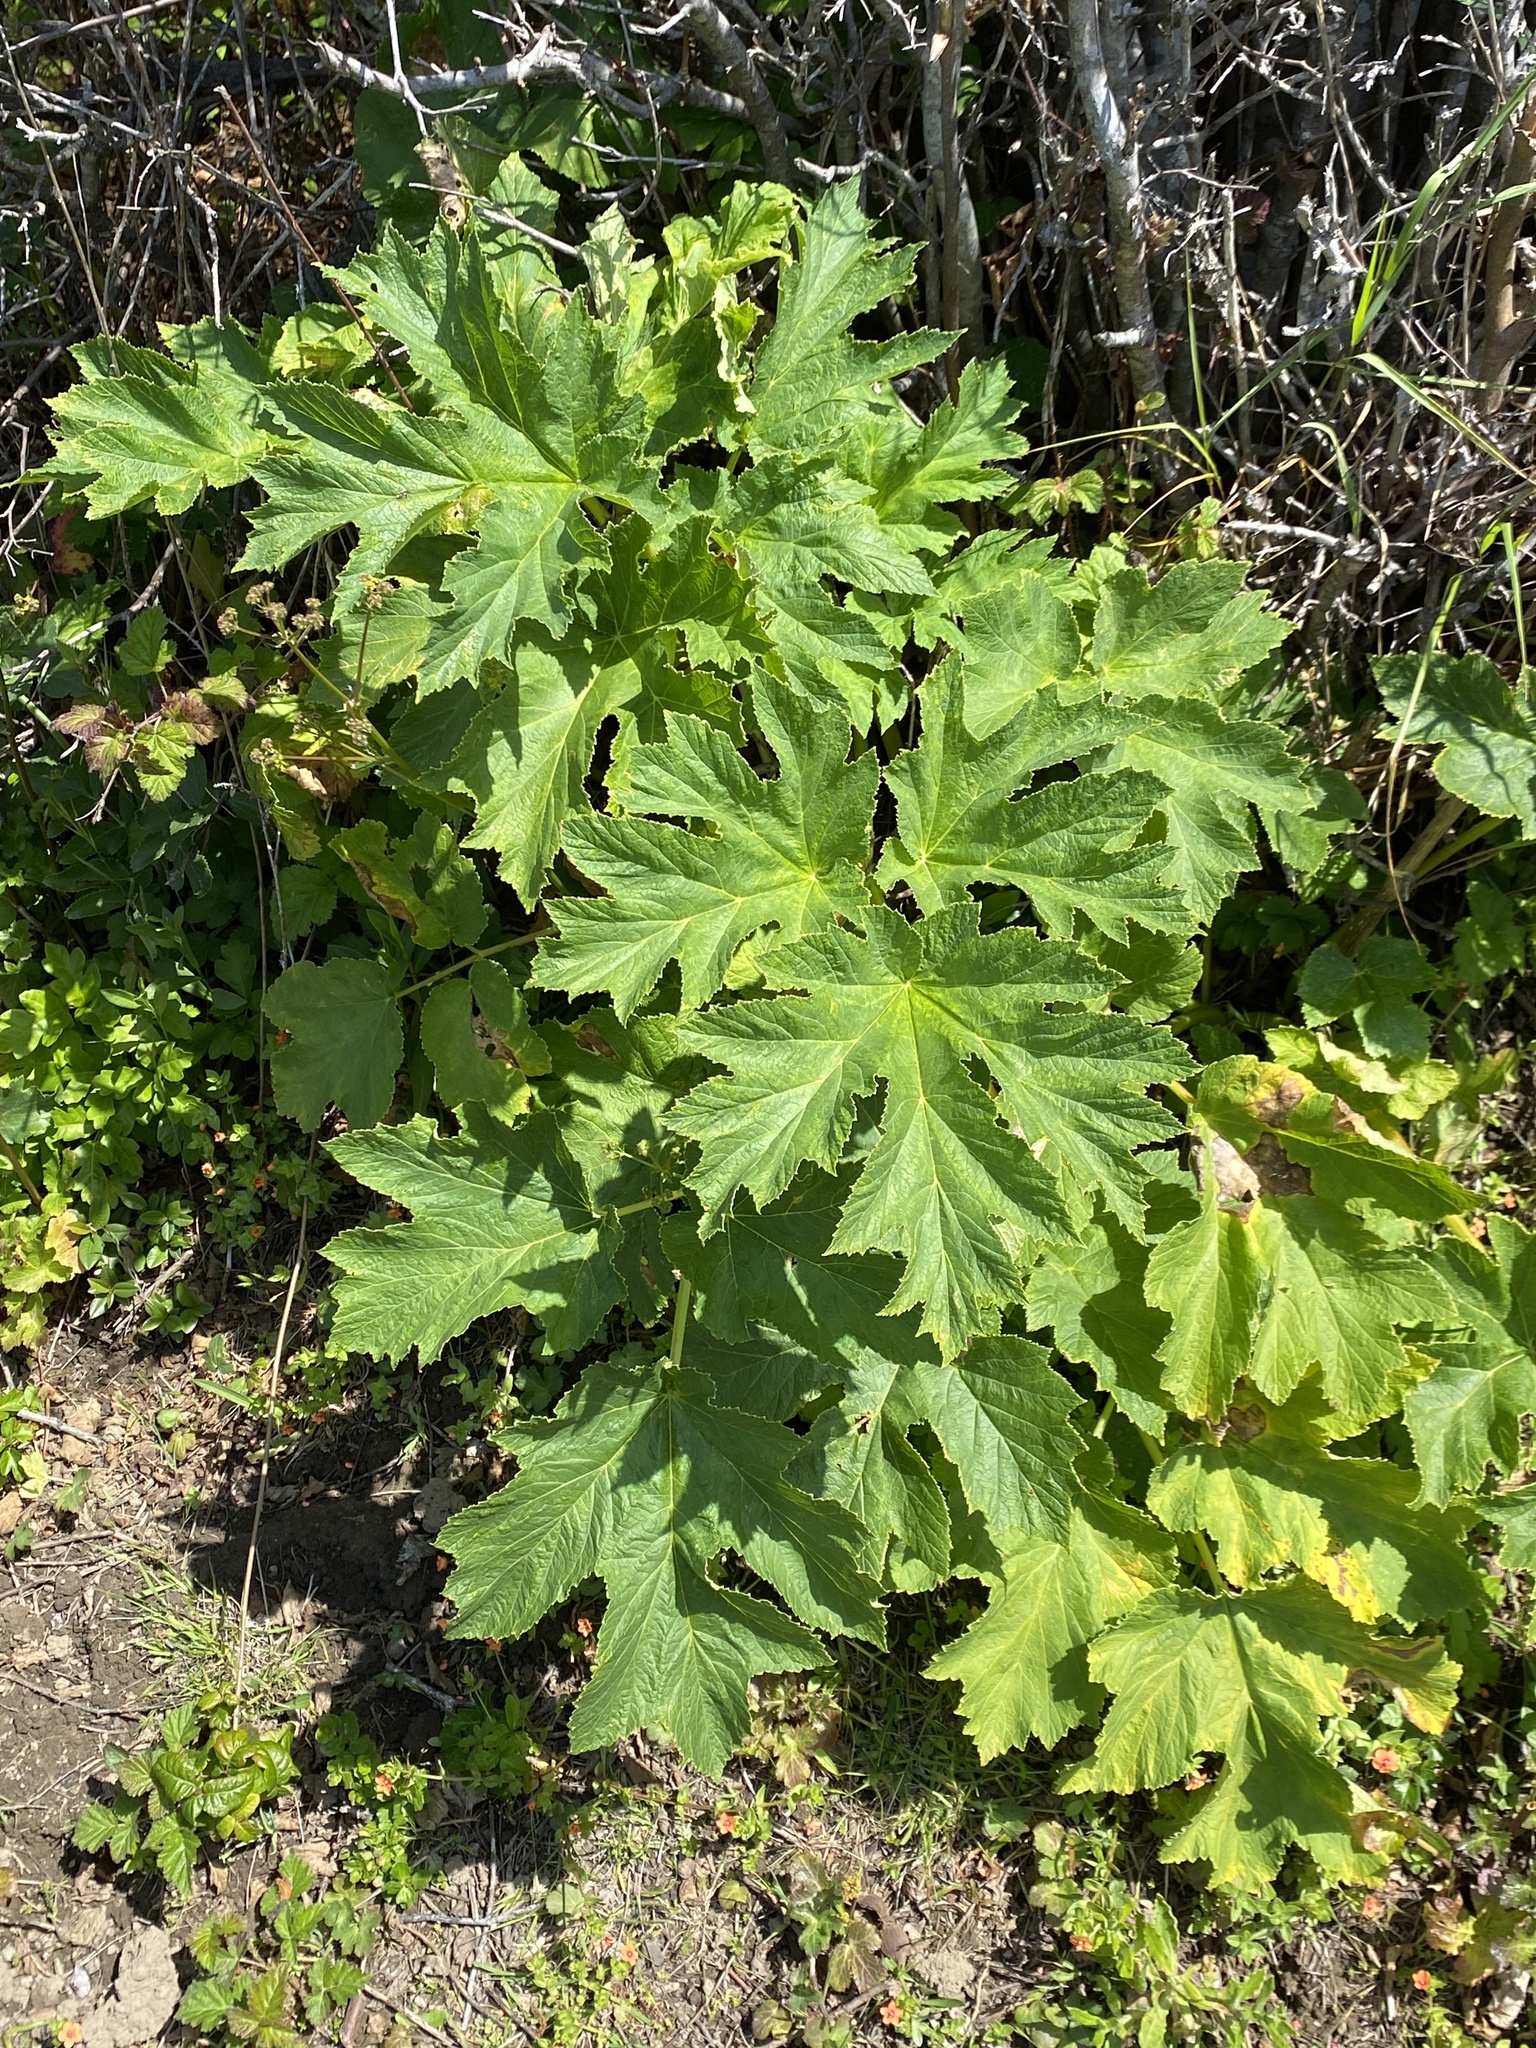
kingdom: Plantae
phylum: Tracheophyta
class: Magnoliopsida
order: Apiales
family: Apiaceae
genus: Heracleum
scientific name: Heracleum maximum
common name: American cow parsnip
